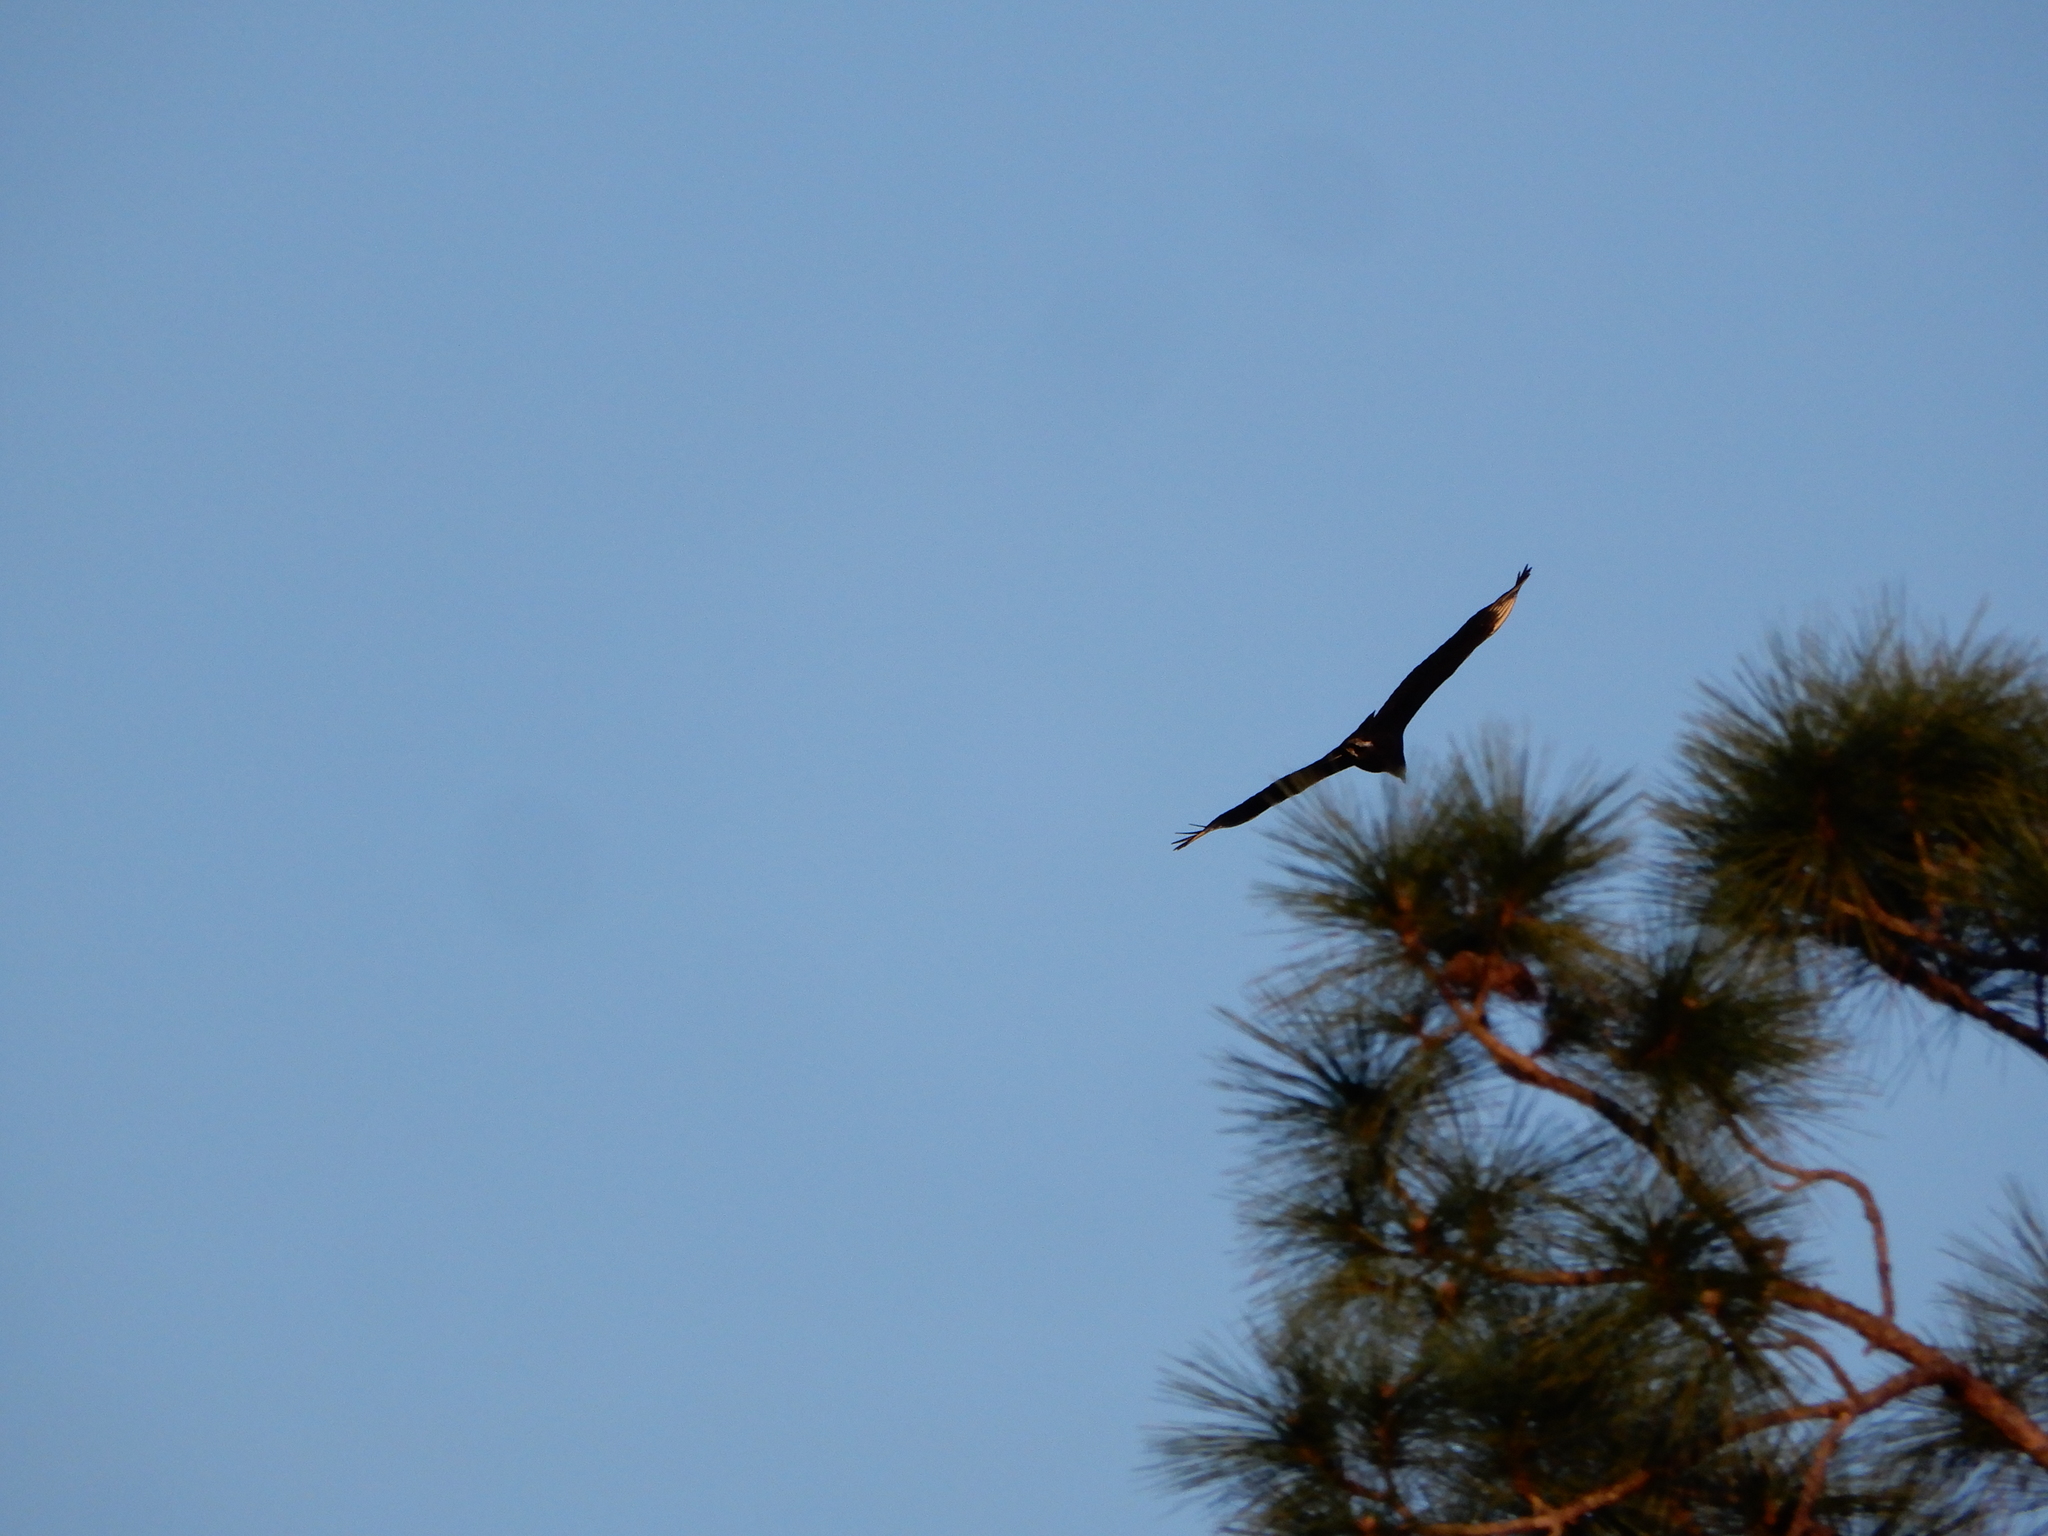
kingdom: Animalia
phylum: Chordata
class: Aves
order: Accipitriformes
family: Cathartidae
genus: Coragyps
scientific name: Coragyps atratus
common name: Black vulture
